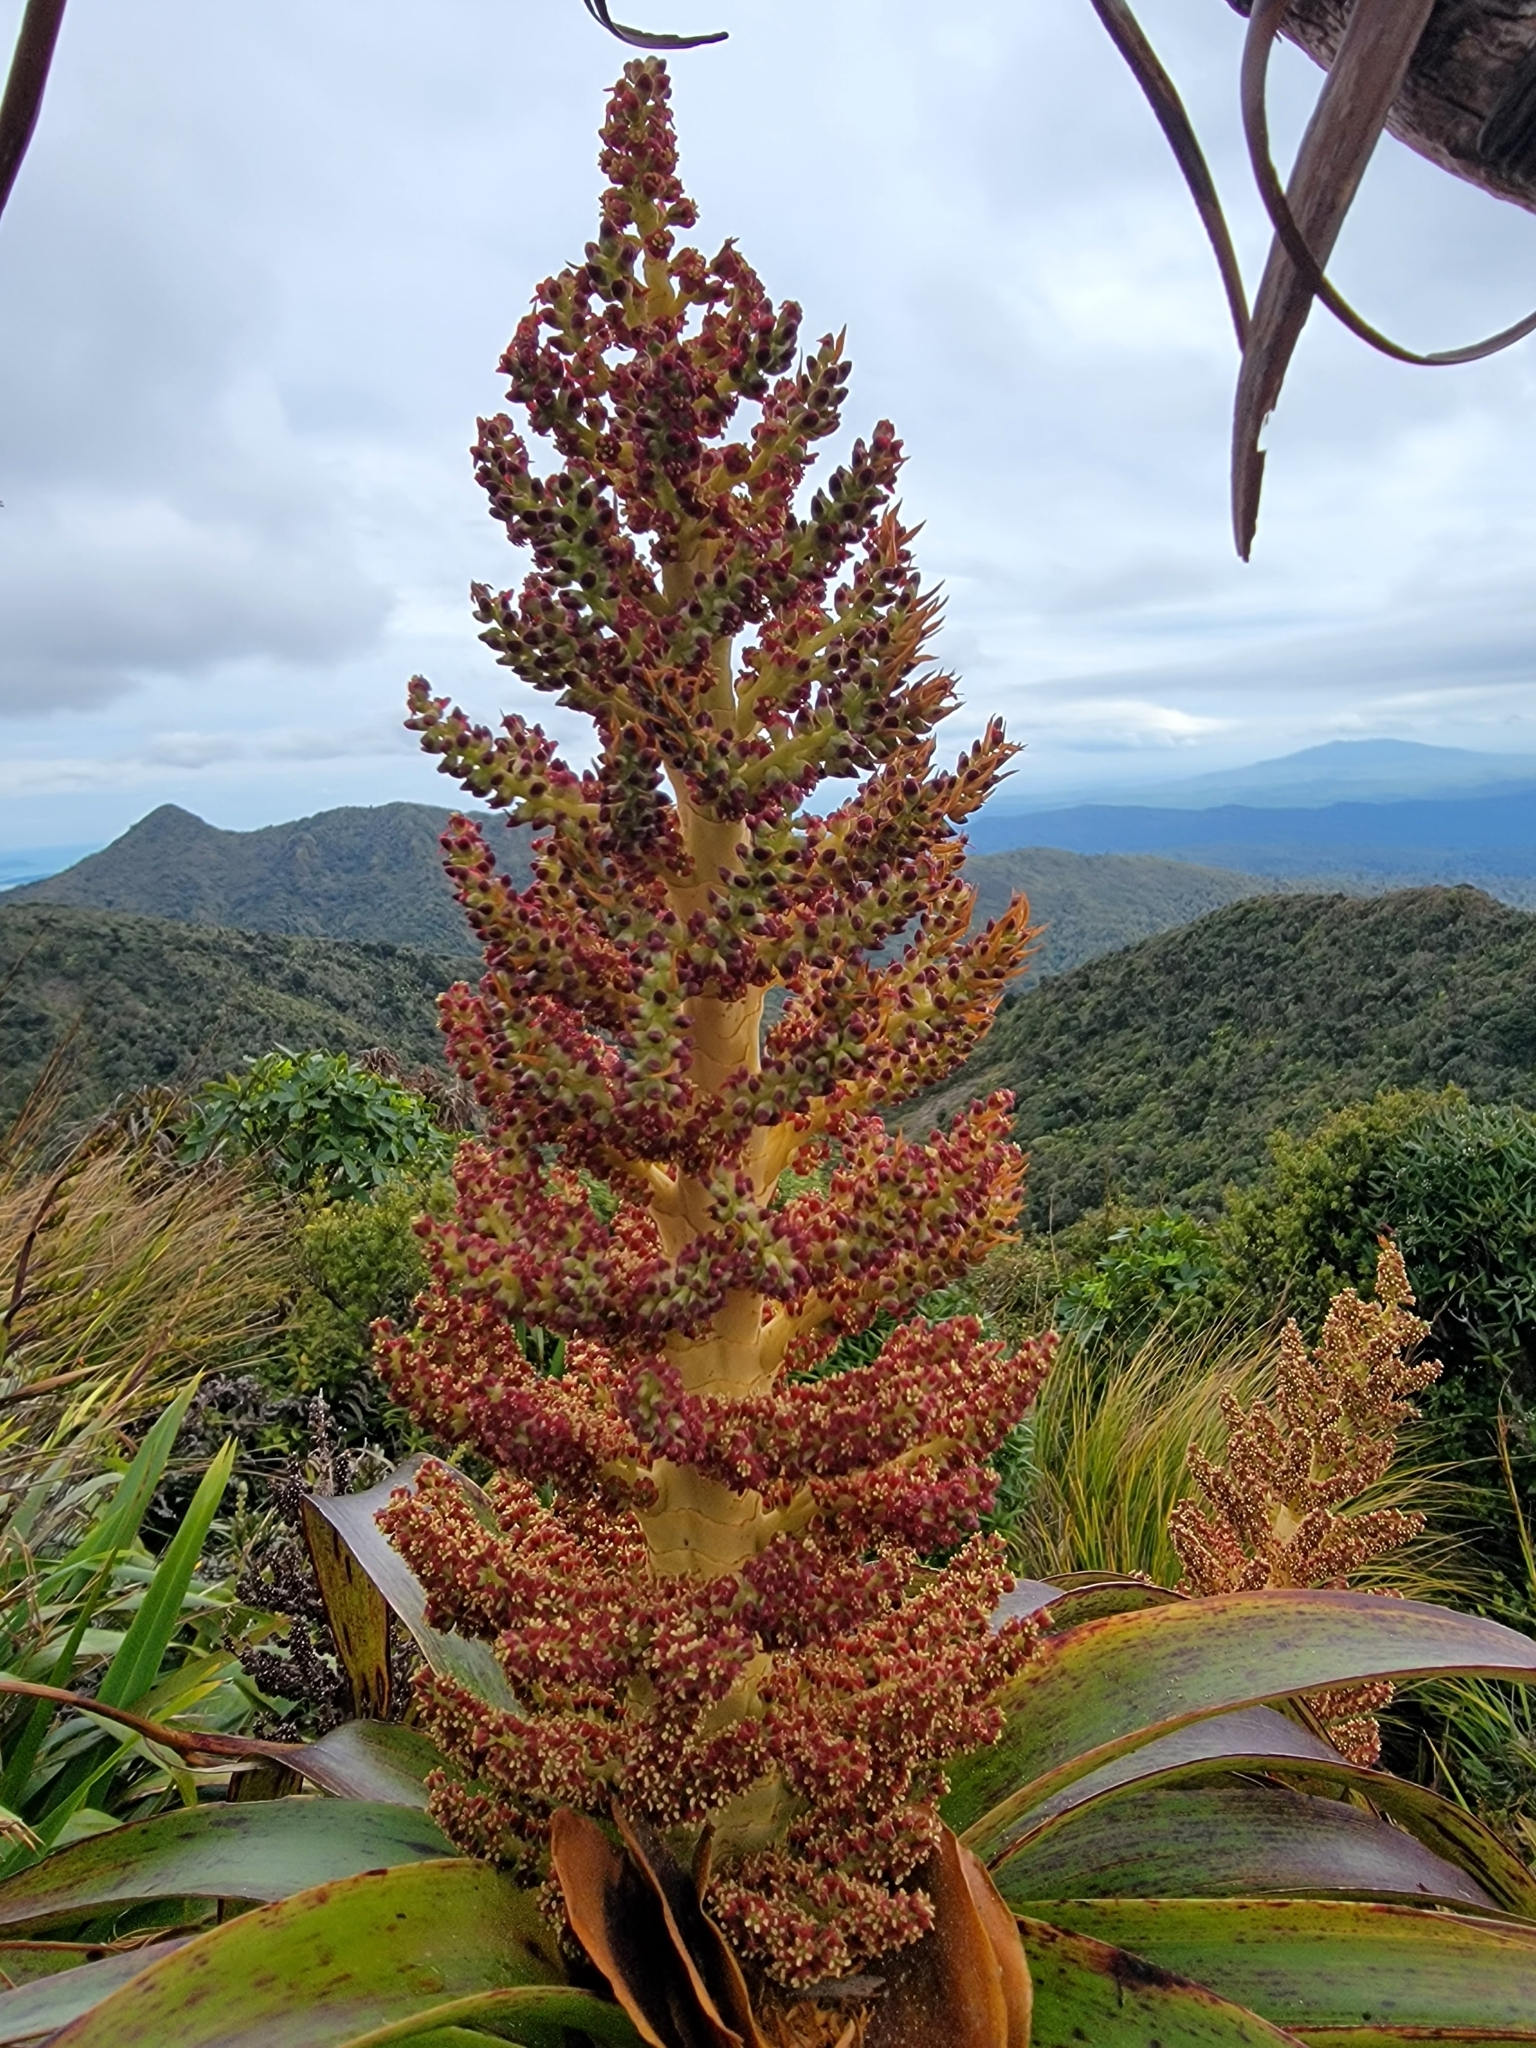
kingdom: Plantae
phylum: Tracheophyta
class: Magnoliopsida
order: Ericales
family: Ericaceae
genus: Dracophyllum
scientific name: Dracophyllum traversii
